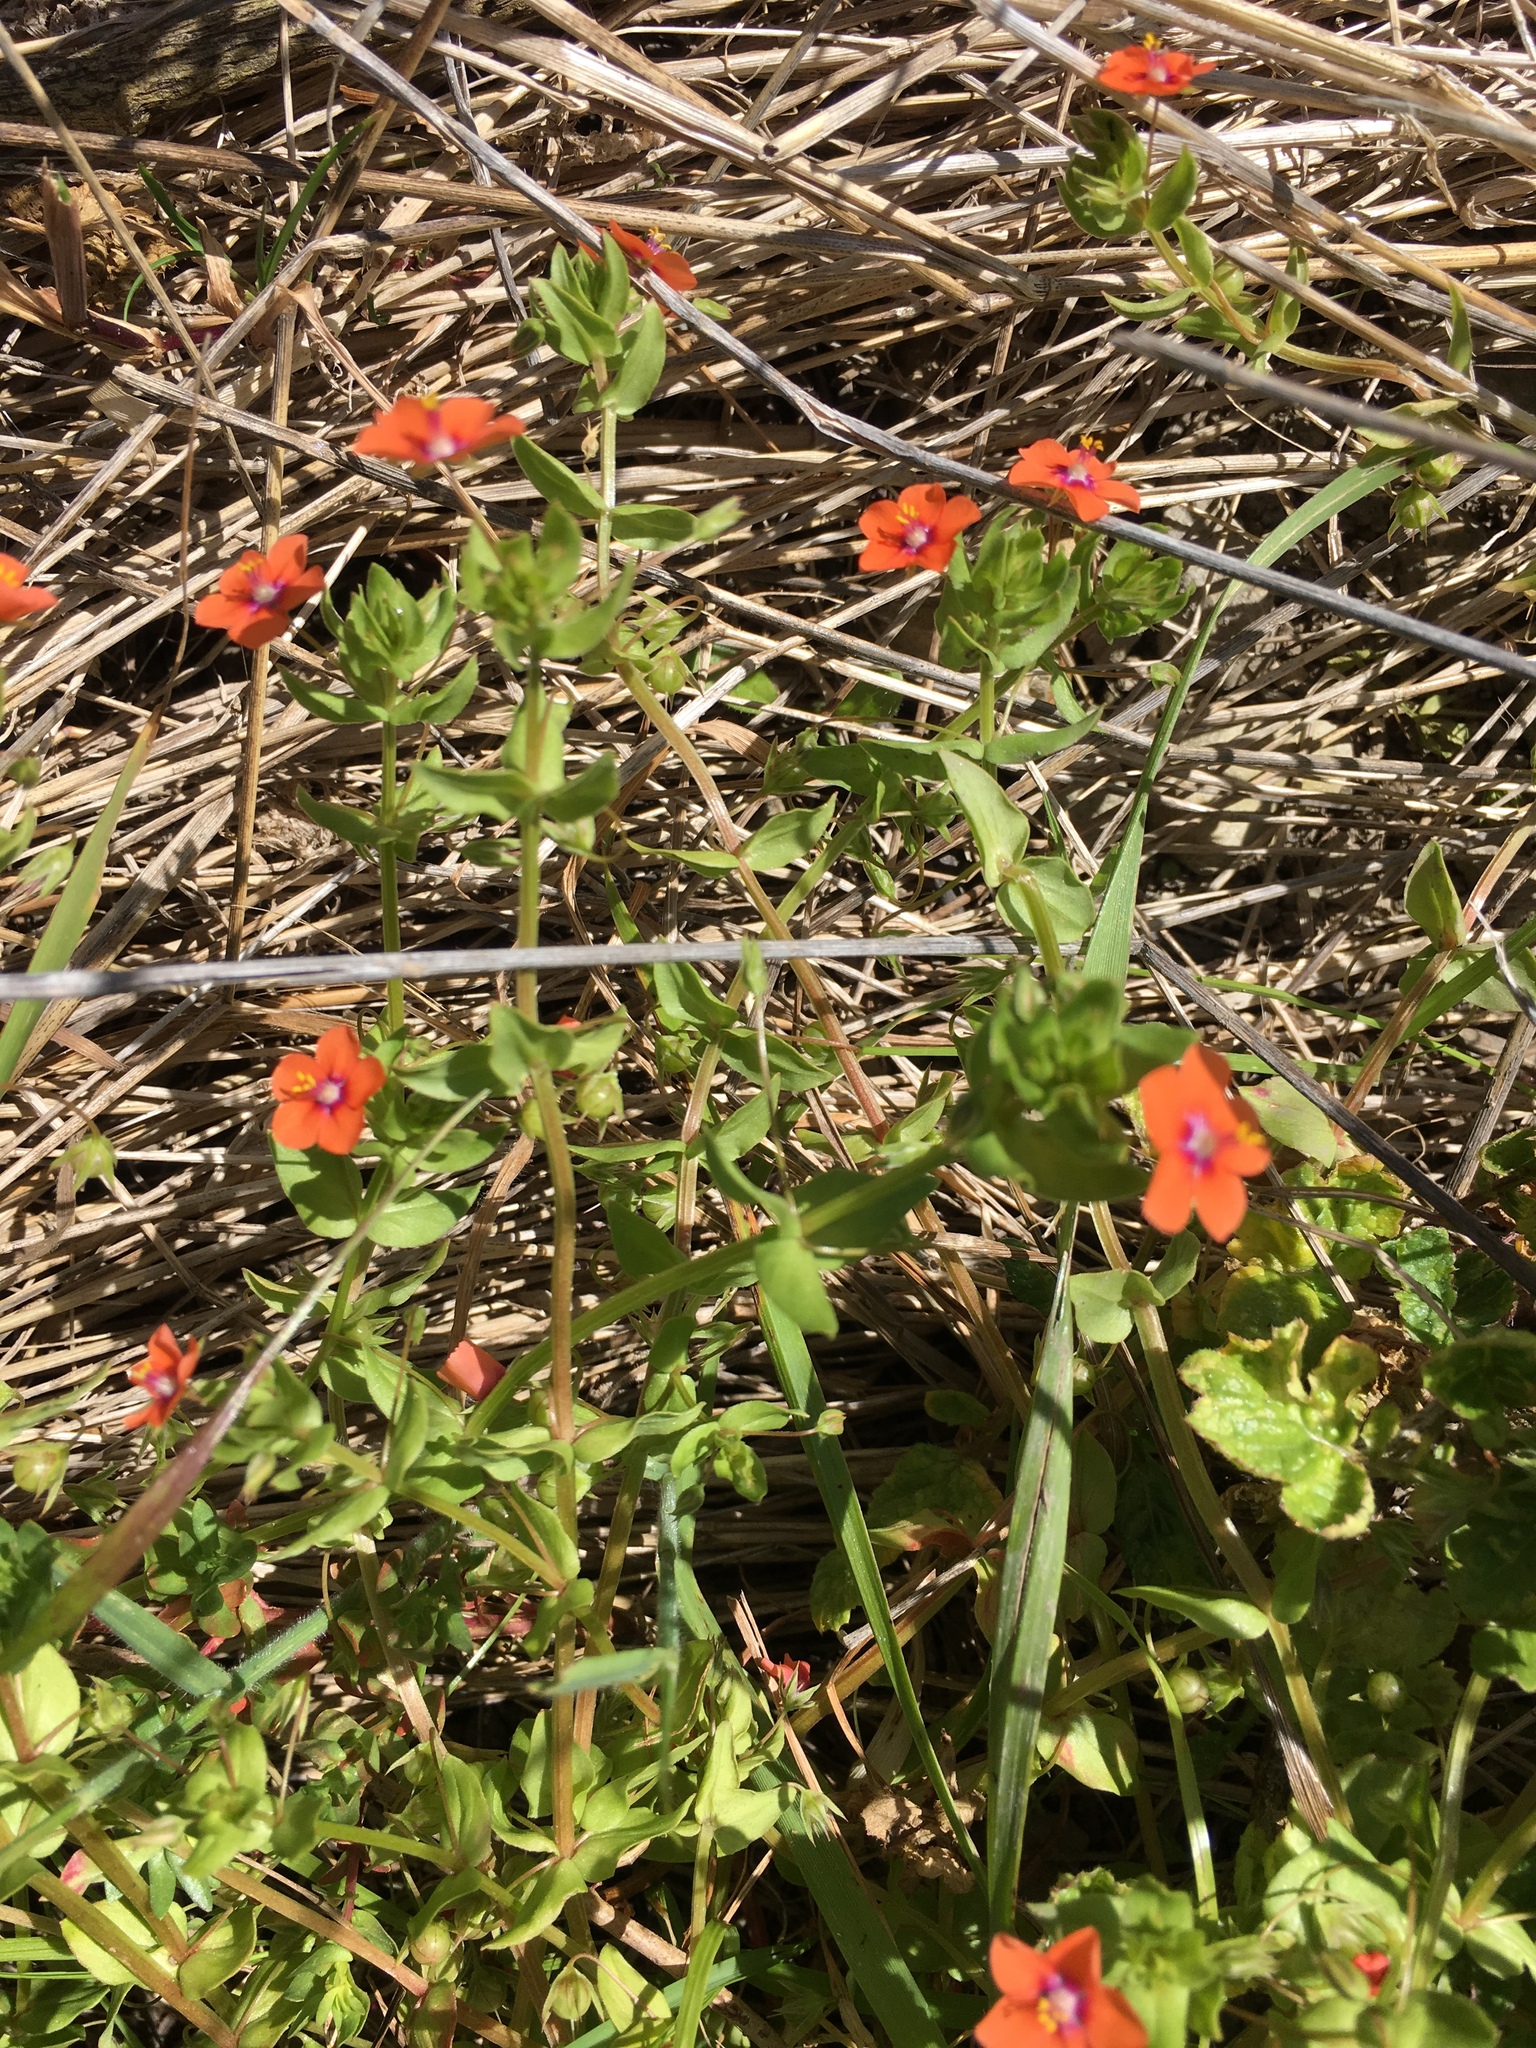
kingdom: Plantae
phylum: Tracheophyta
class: Magnoliopsida
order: Ericales
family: Primulaceae
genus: Lysimachia
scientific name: Lysimachia arvensis
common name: Scarlet pimpernel
